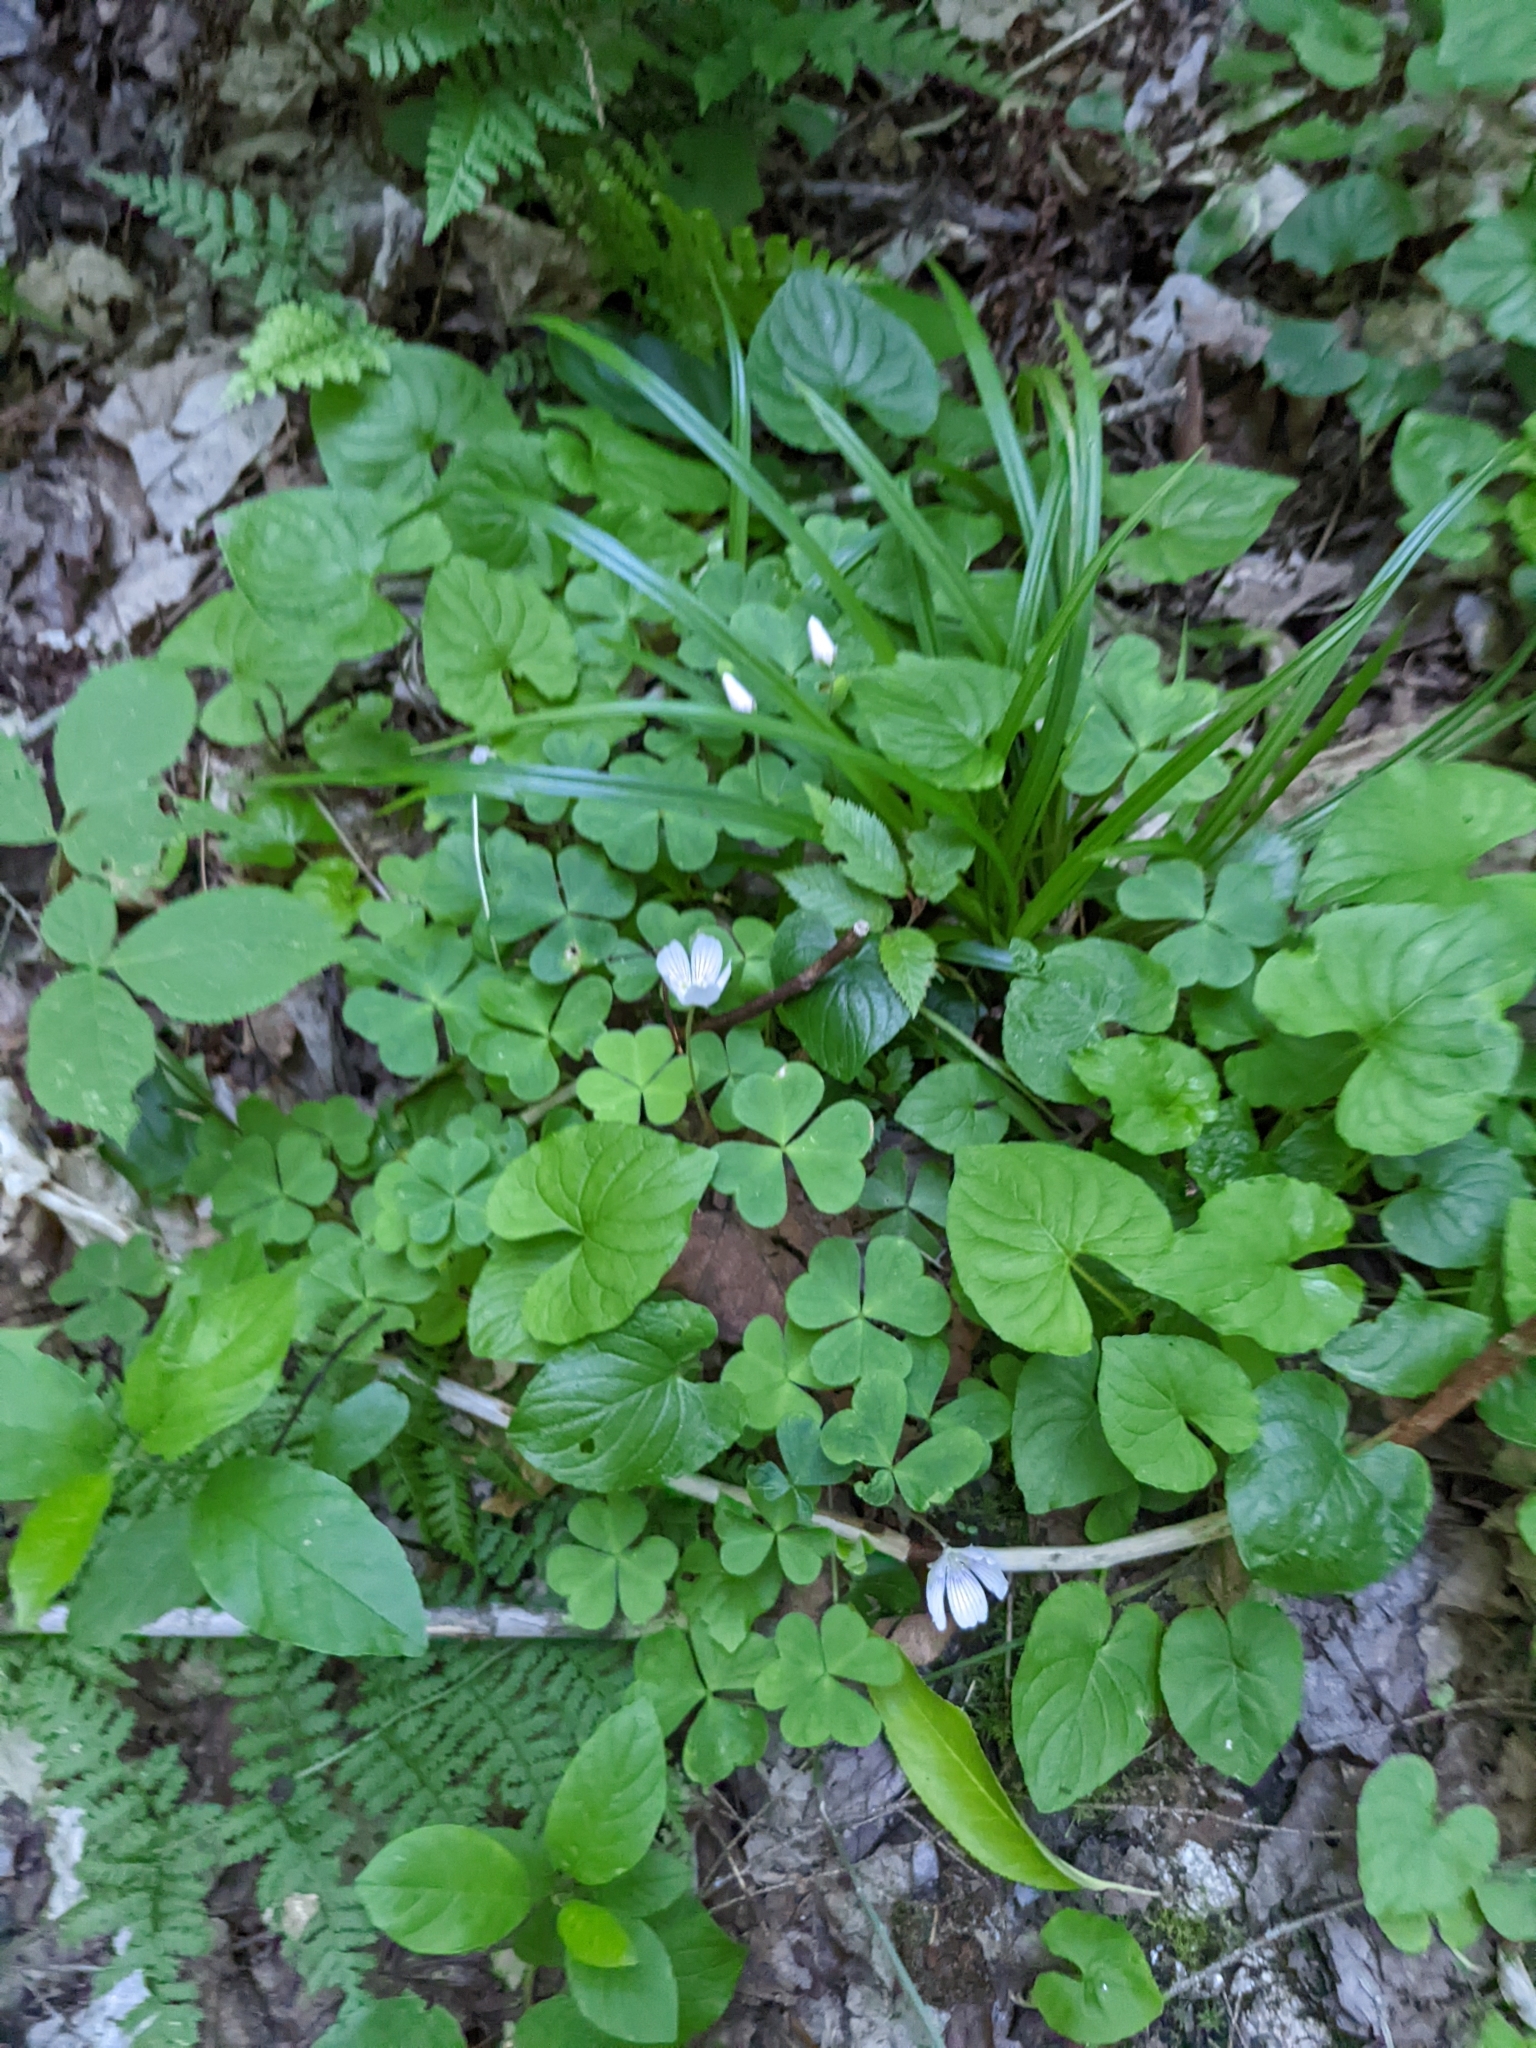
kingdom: Plantae
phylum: Tracheophyta
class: Magnoliopsida
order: Oxalidales
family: Oxalidaceae
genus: Oxalis
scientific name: Oxalis montana
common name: American wood-sorrel
